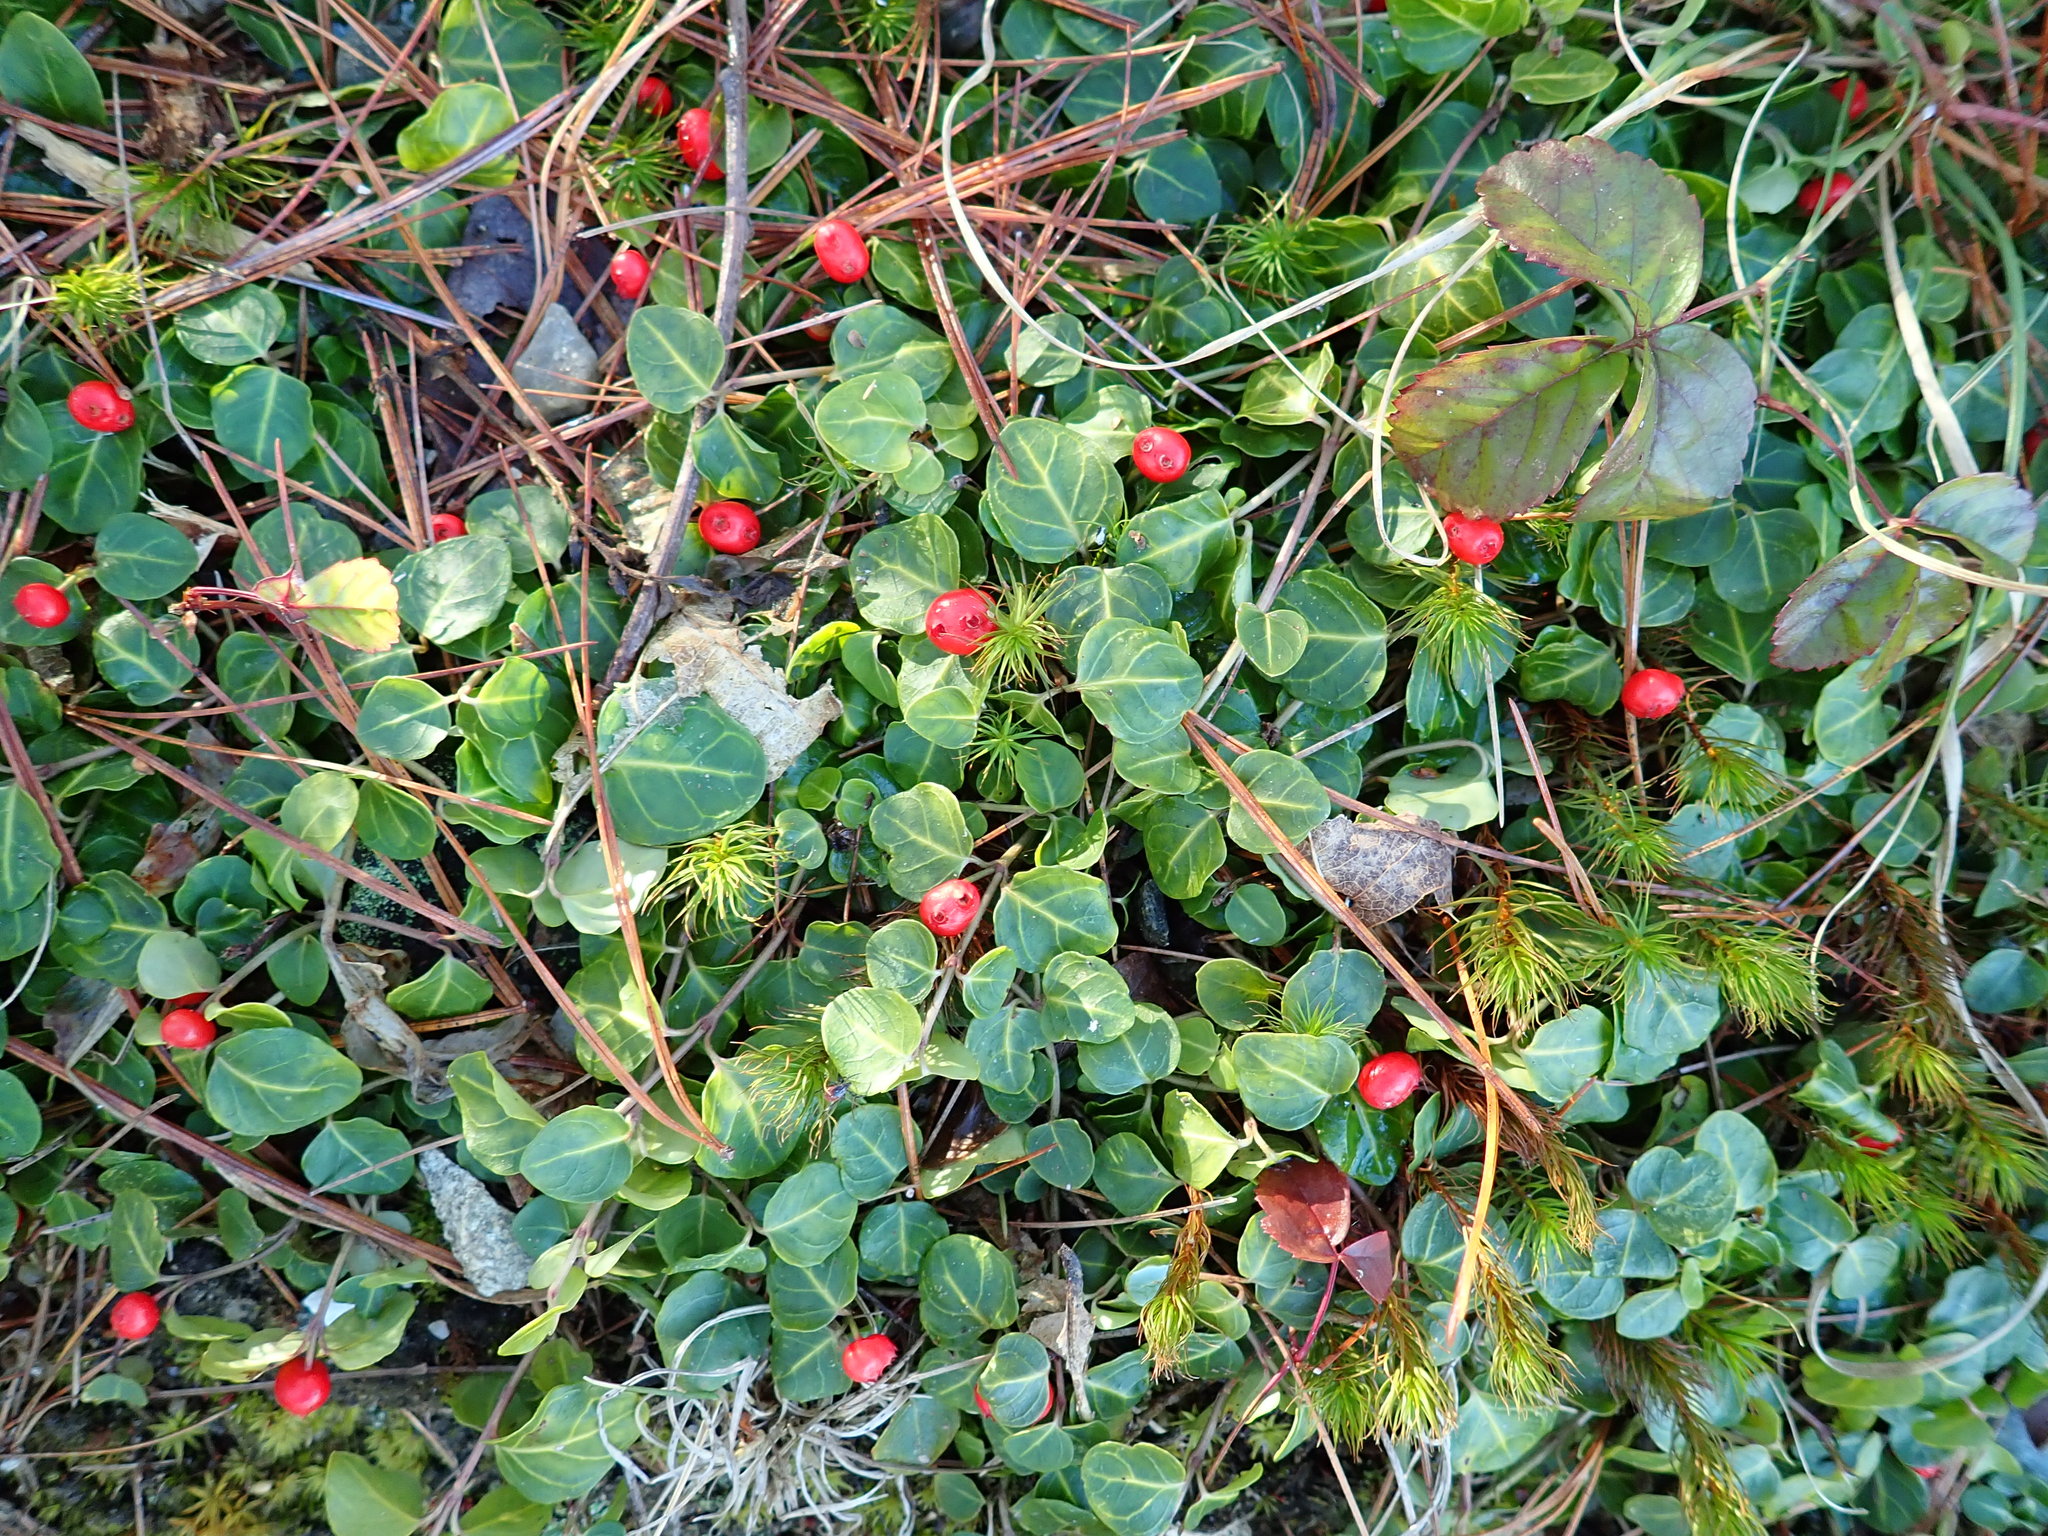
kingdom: Plantae
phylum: Tracheophyta
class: Magnoliopsida
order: Gentianales
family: Rubiaceae
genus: Mitchella
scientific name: Mitchella repens
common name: Partridge-berry
